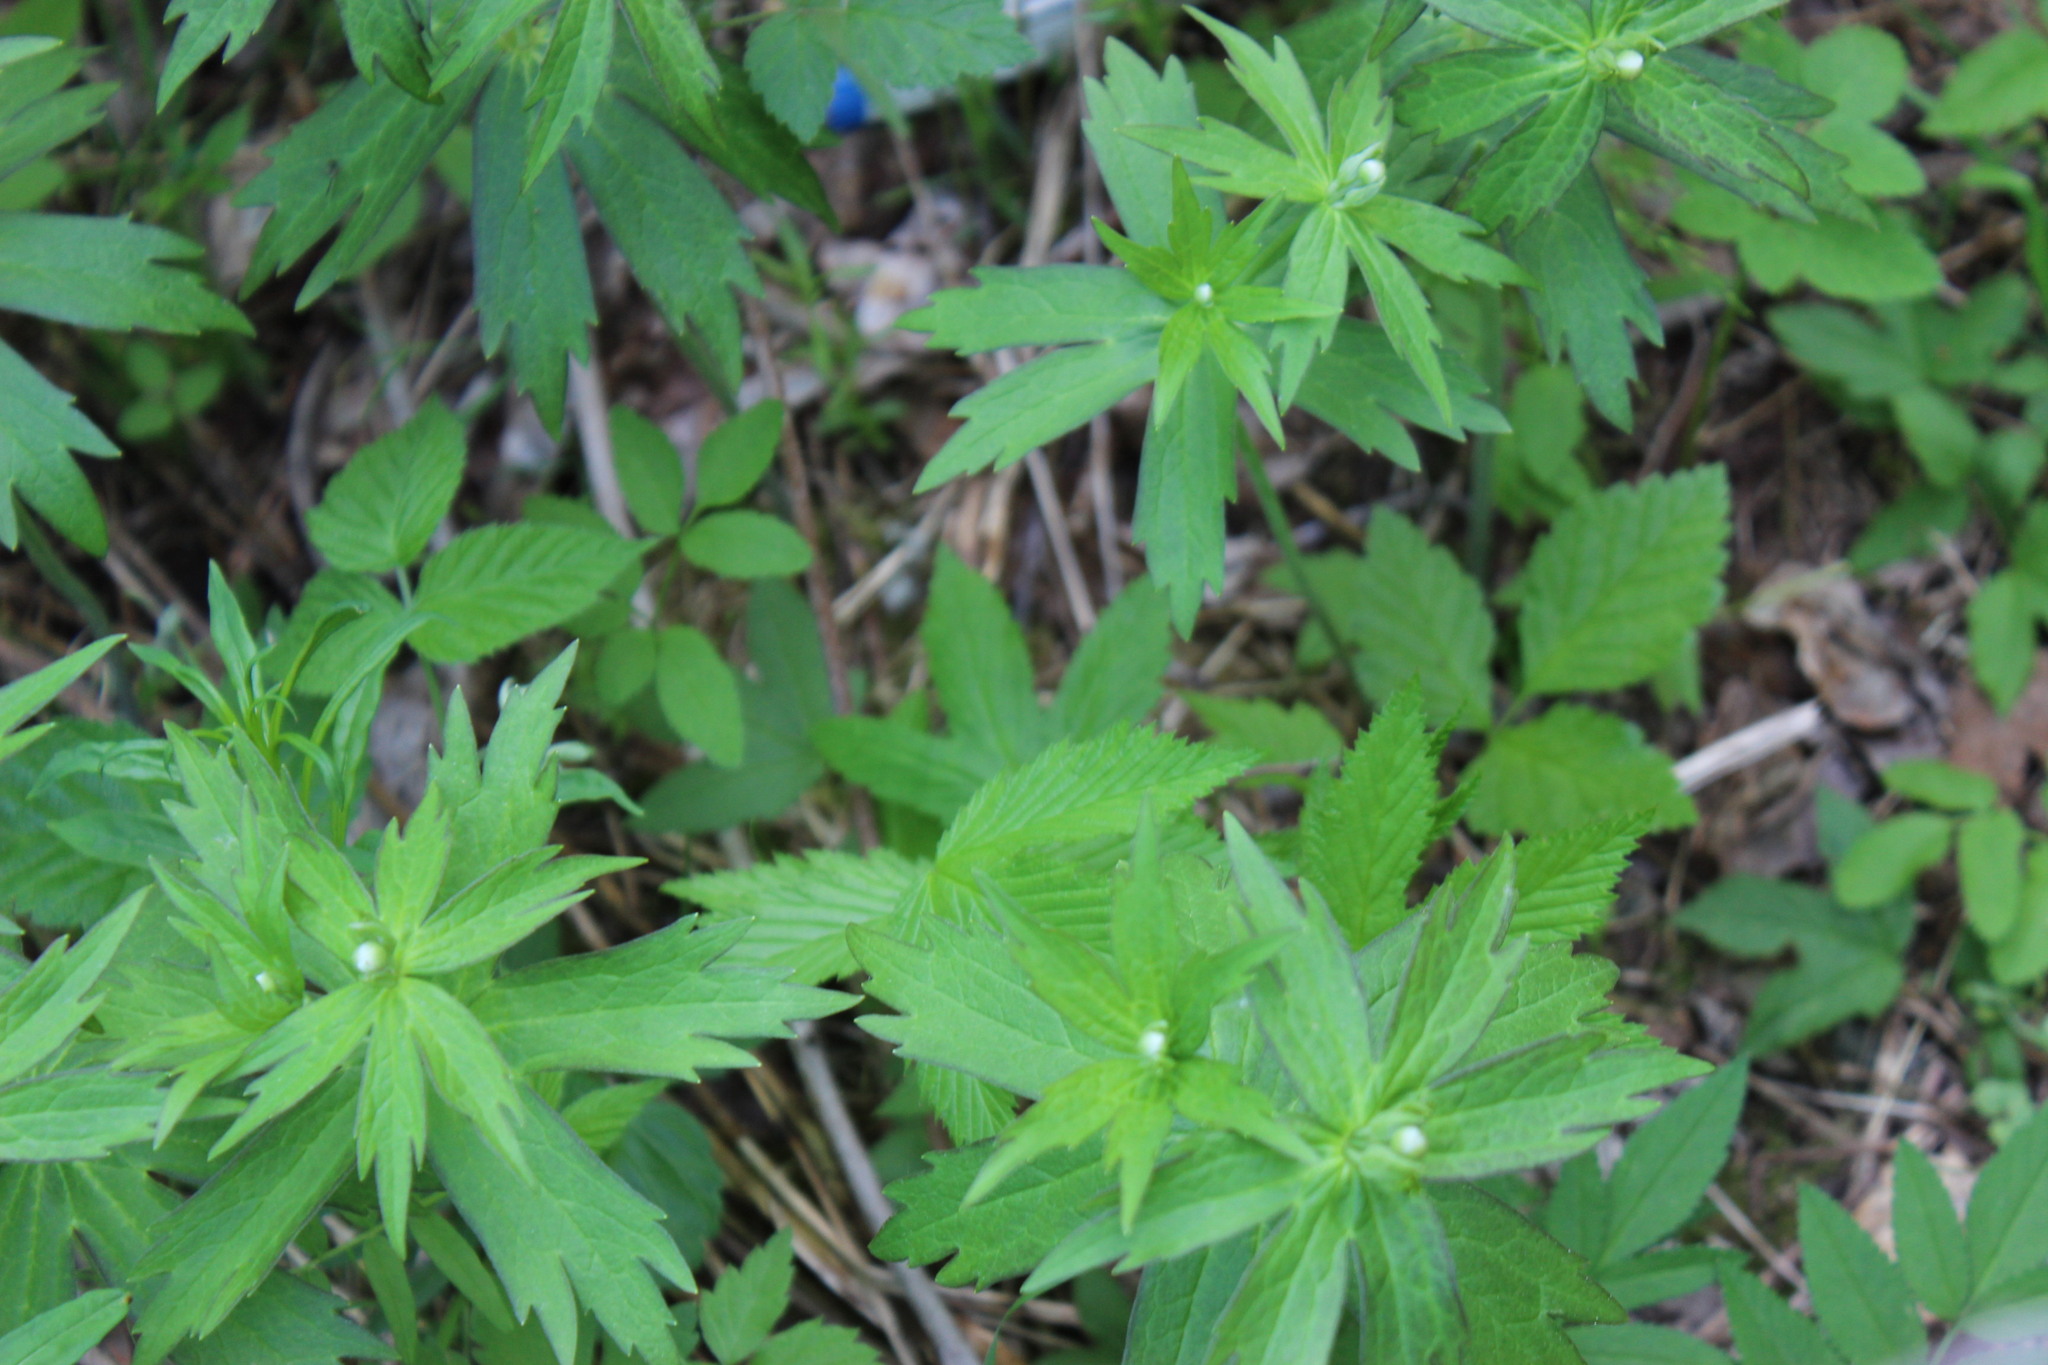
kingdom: Plantae
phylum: Tracheophyta
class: Magnoliopsida
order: Ranunculales
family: Ranunculaceae
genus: Anemonastrum
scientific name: Anemonastrum dichotomum
